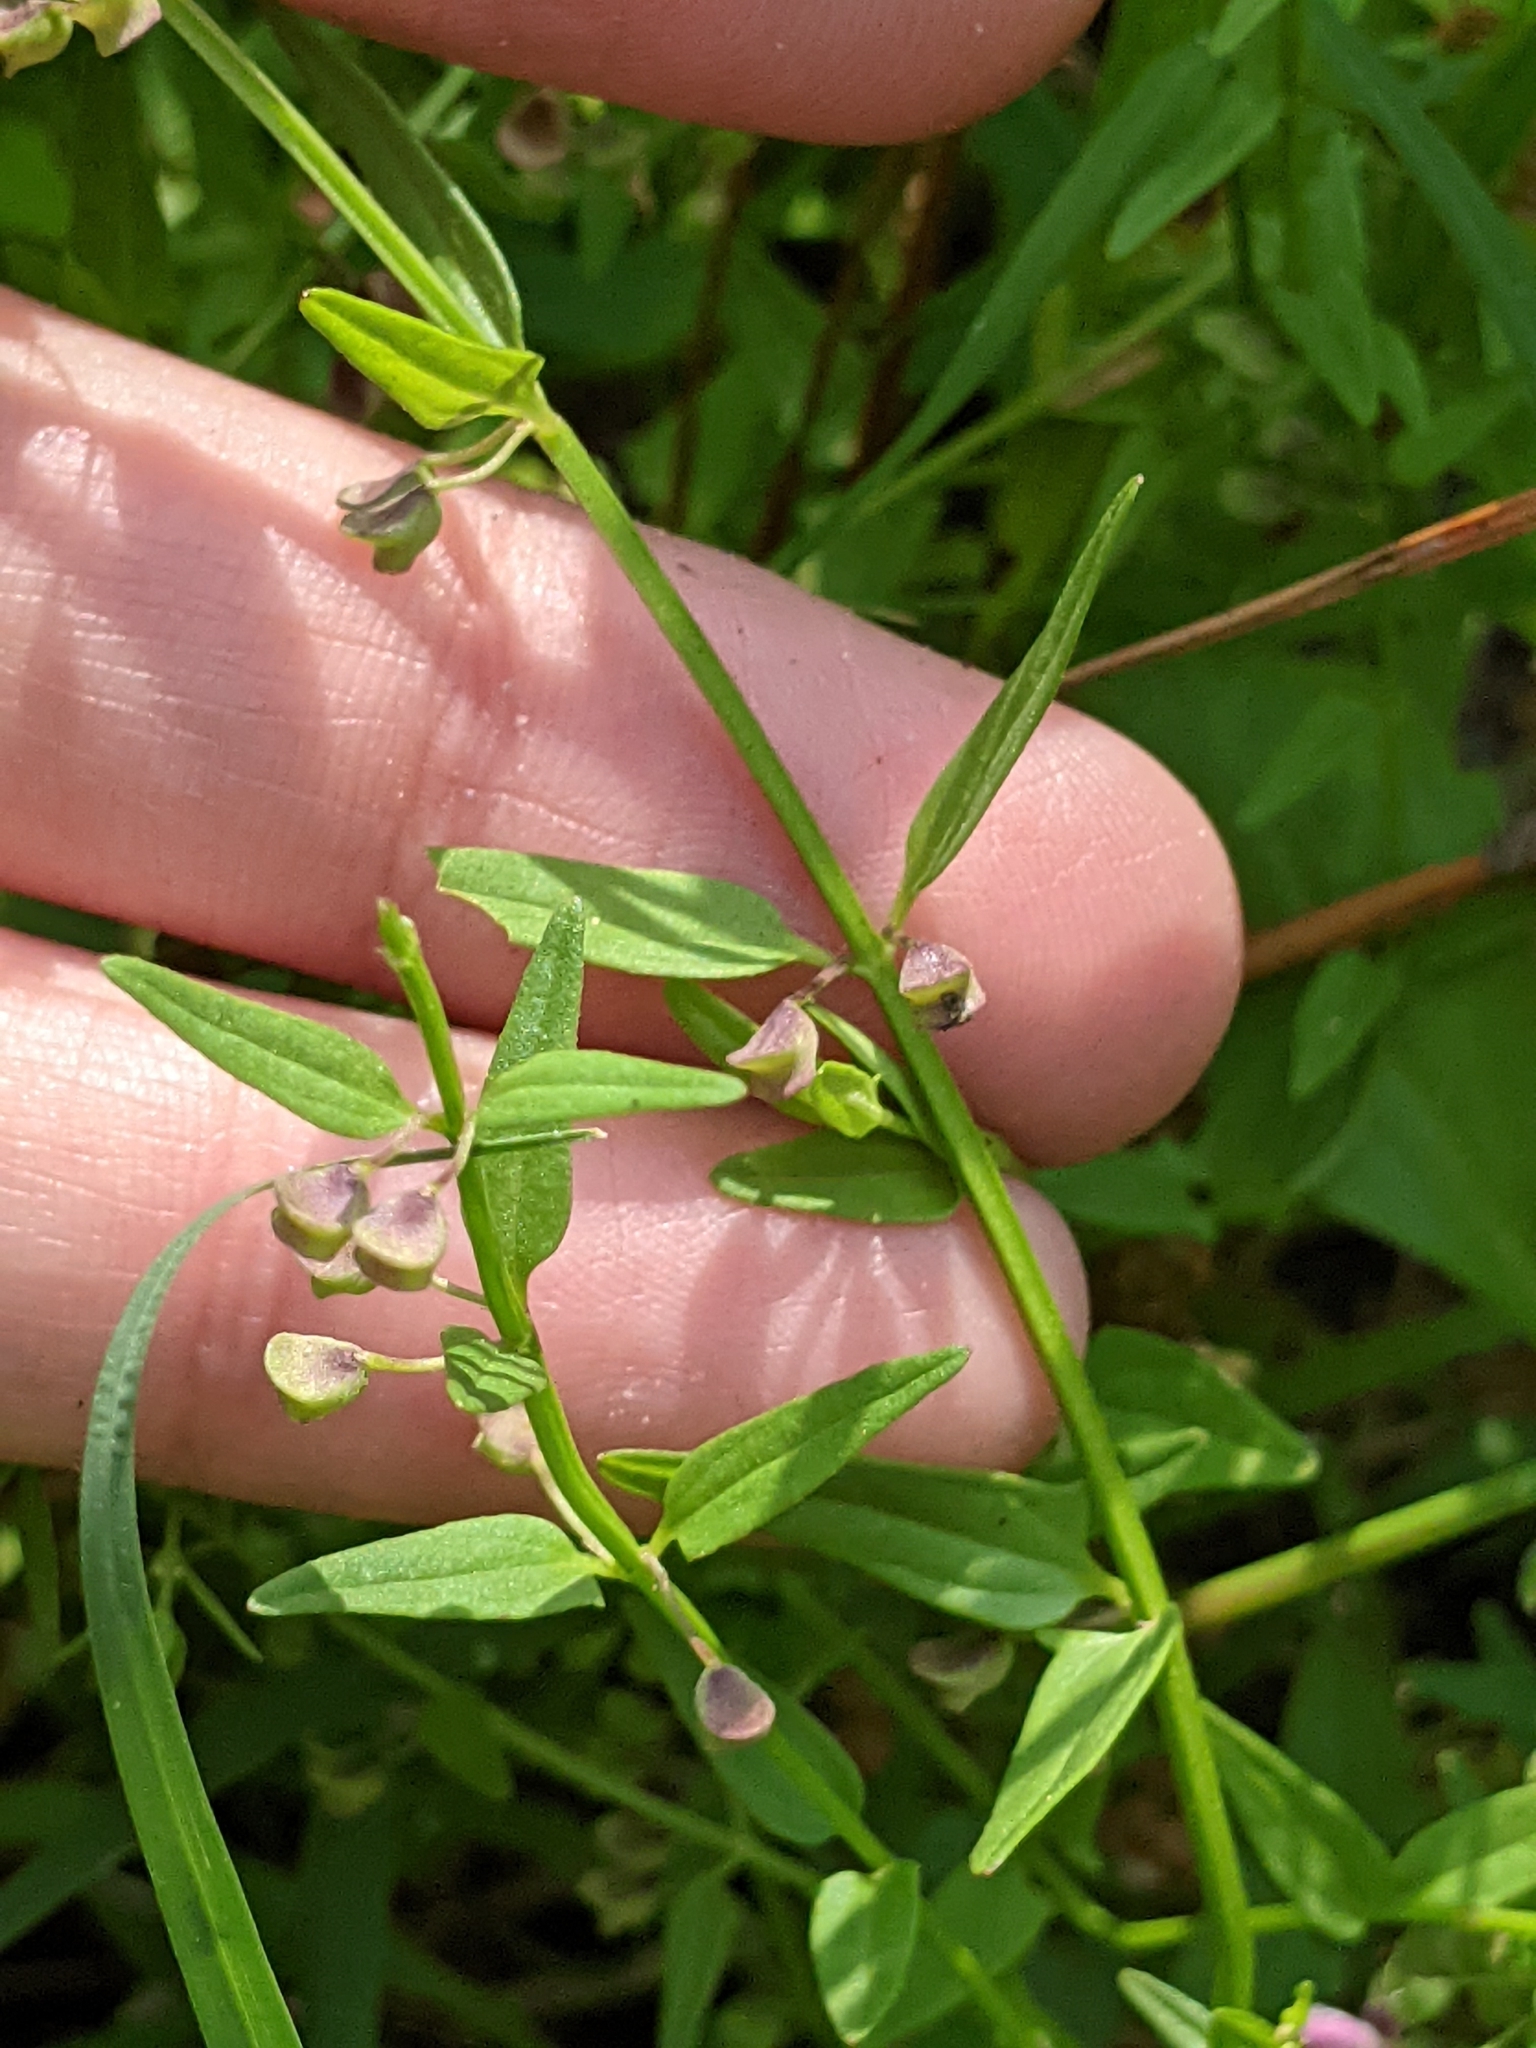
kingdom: Plantae
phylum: Tracheophyta
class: Magnoliopsida
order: Lamiales
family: Lamiaceae
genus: Scutellaria
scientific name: Scutellaria racemosa
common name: South american skullcap
